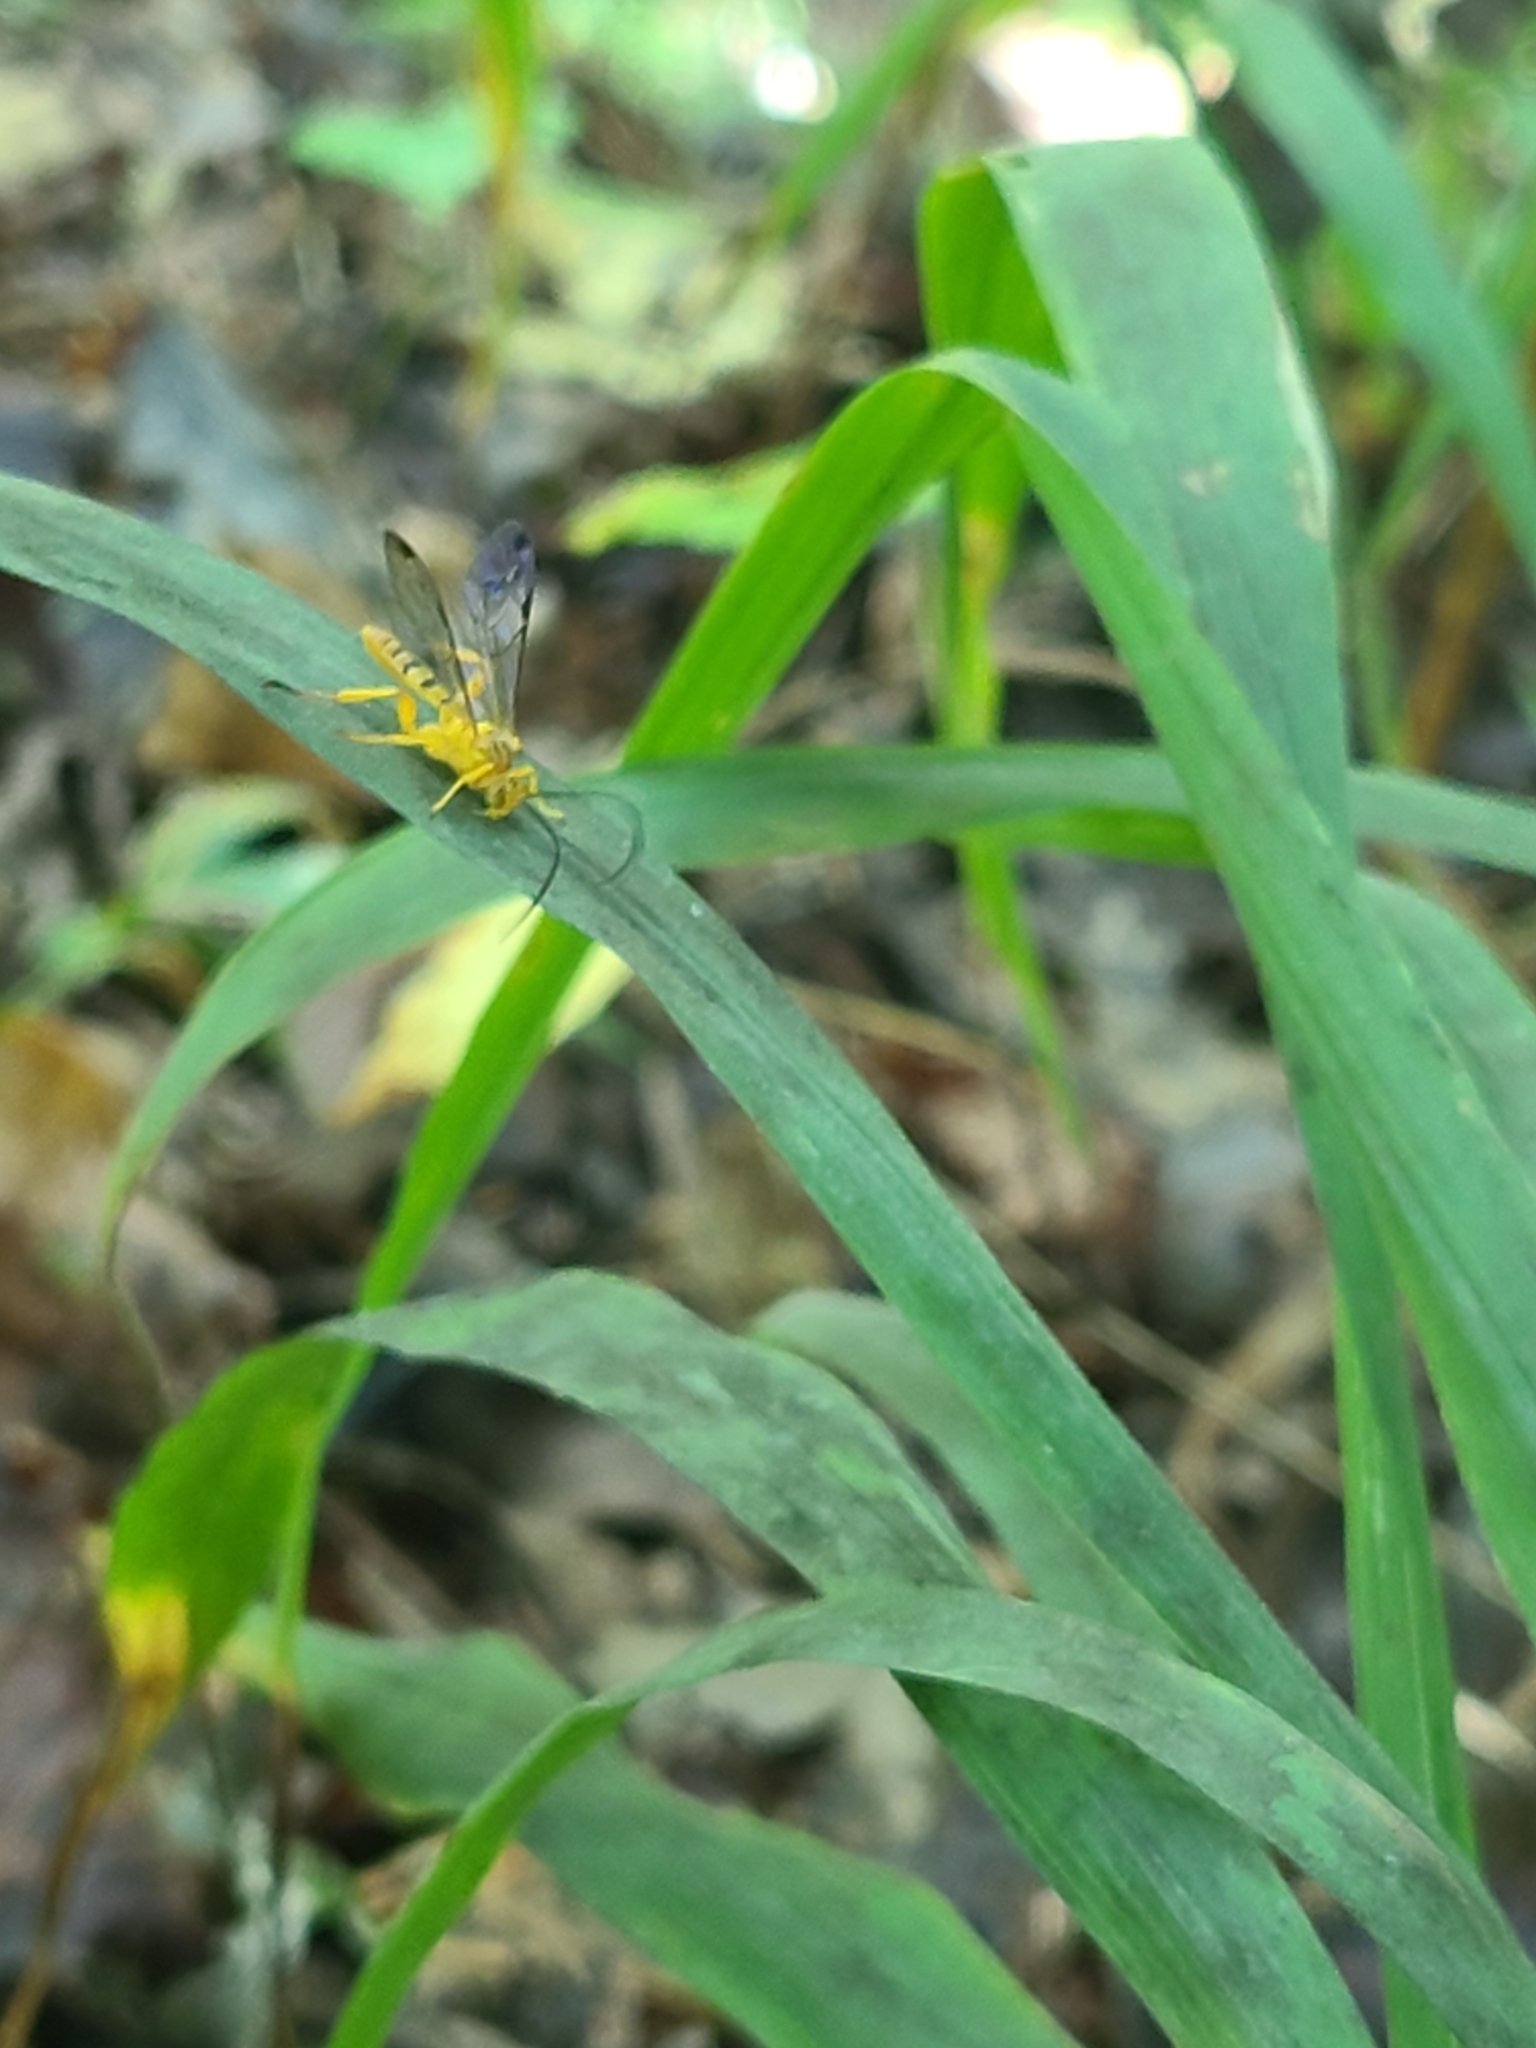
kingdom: Animalia
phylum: Arthropoda
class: Insecta
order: Hymenoptera
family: Ichneumonidae
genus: Neotheronia
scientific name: Neotheronia septemtrionalis
